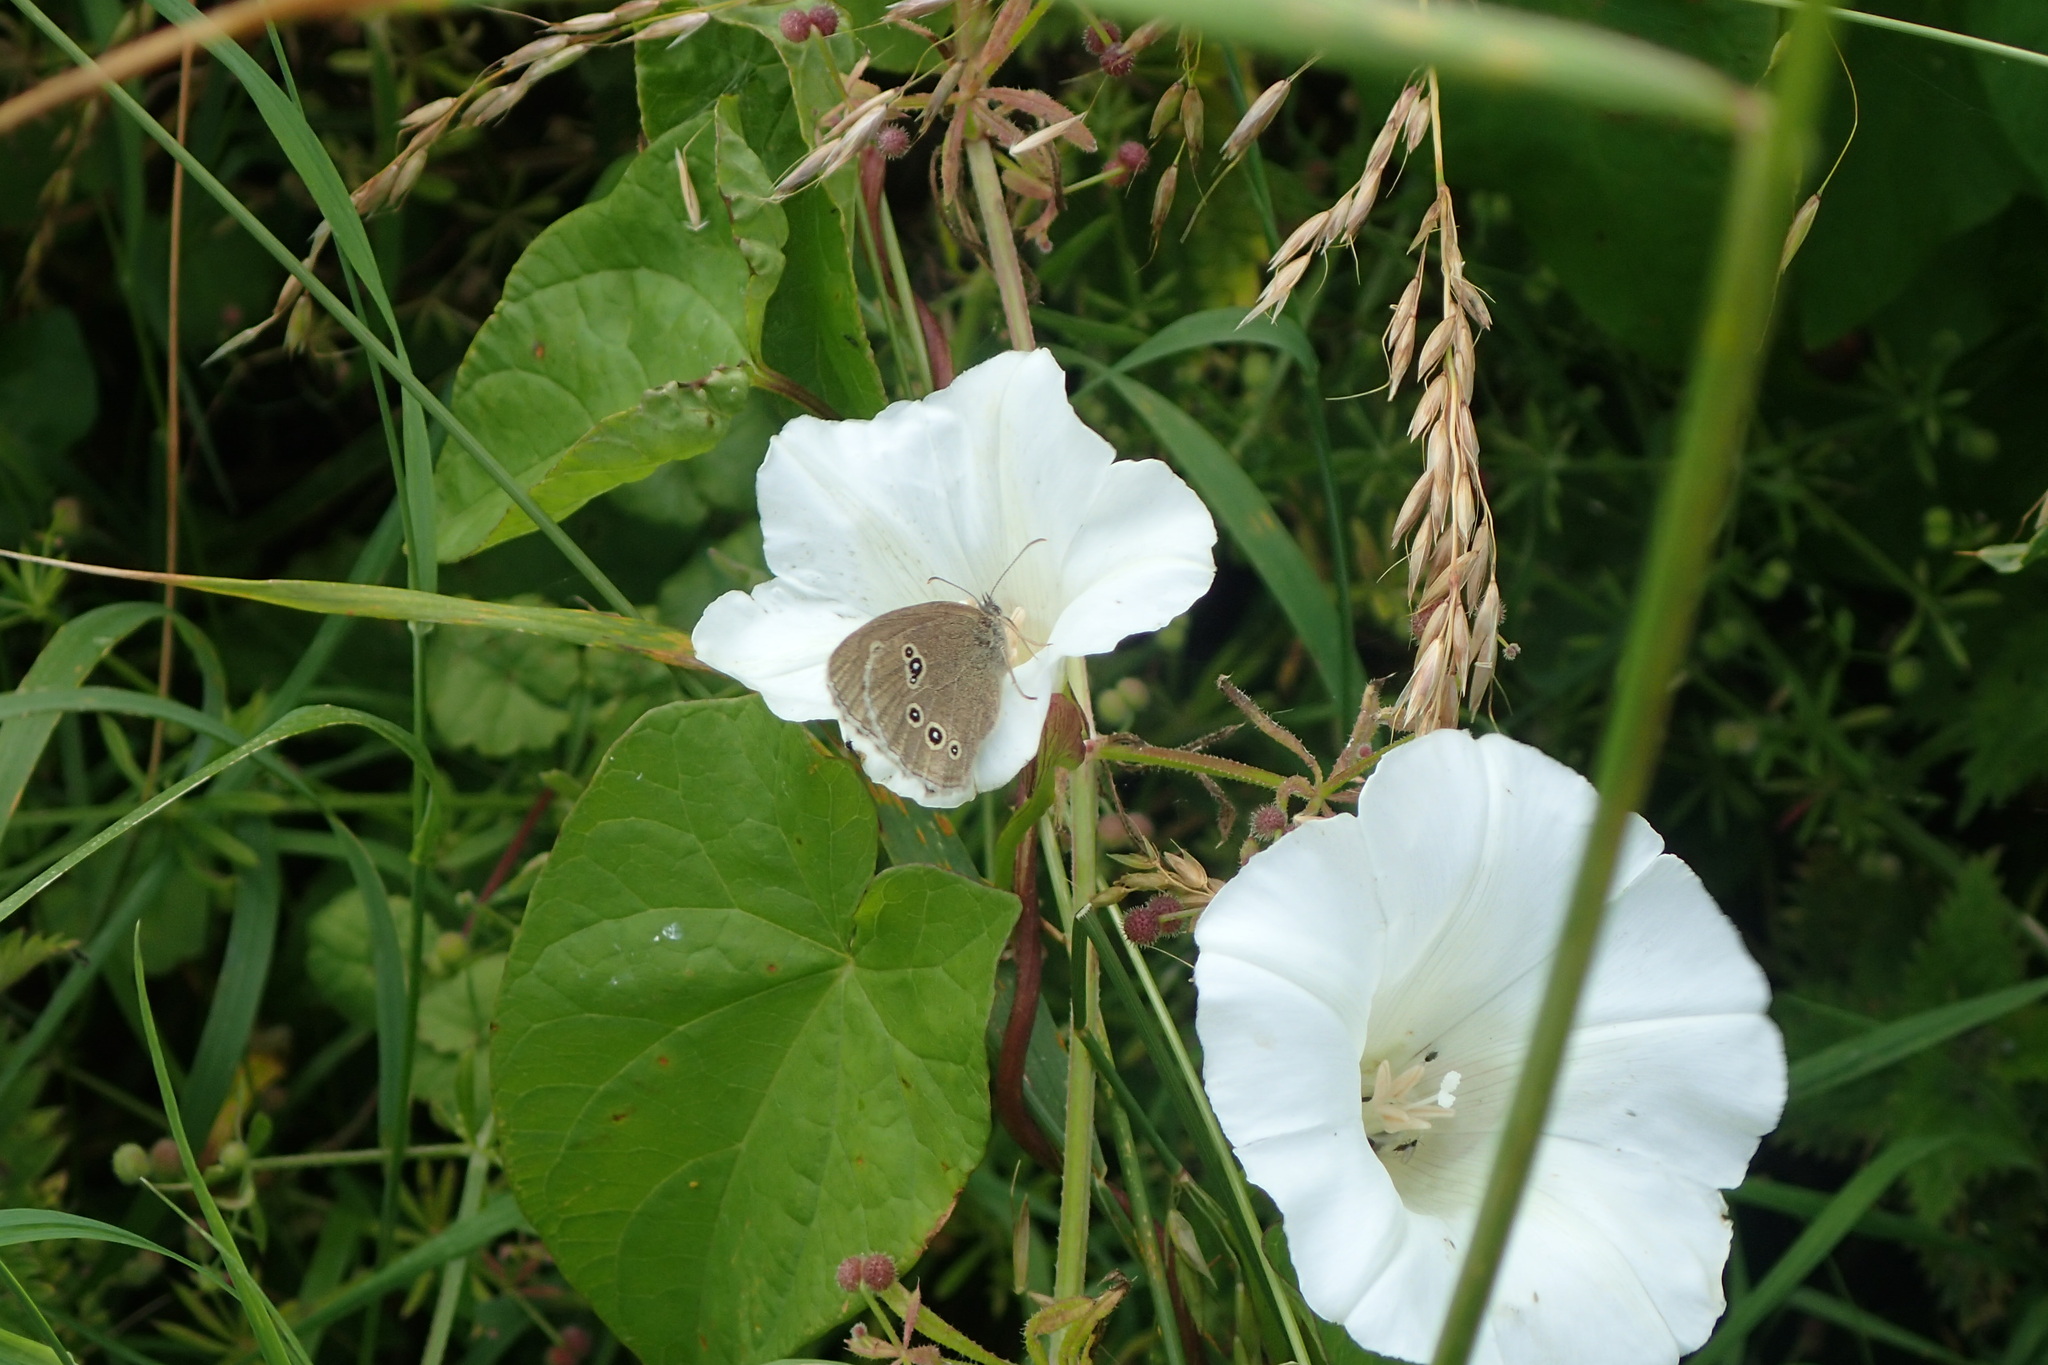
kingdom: Animalia
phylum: Arthropoda
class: Insecta
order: Lepidoptera
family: Nymphalidae
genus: Aphantopus
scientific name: Aphantopus hyperantus
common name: Ringlet
